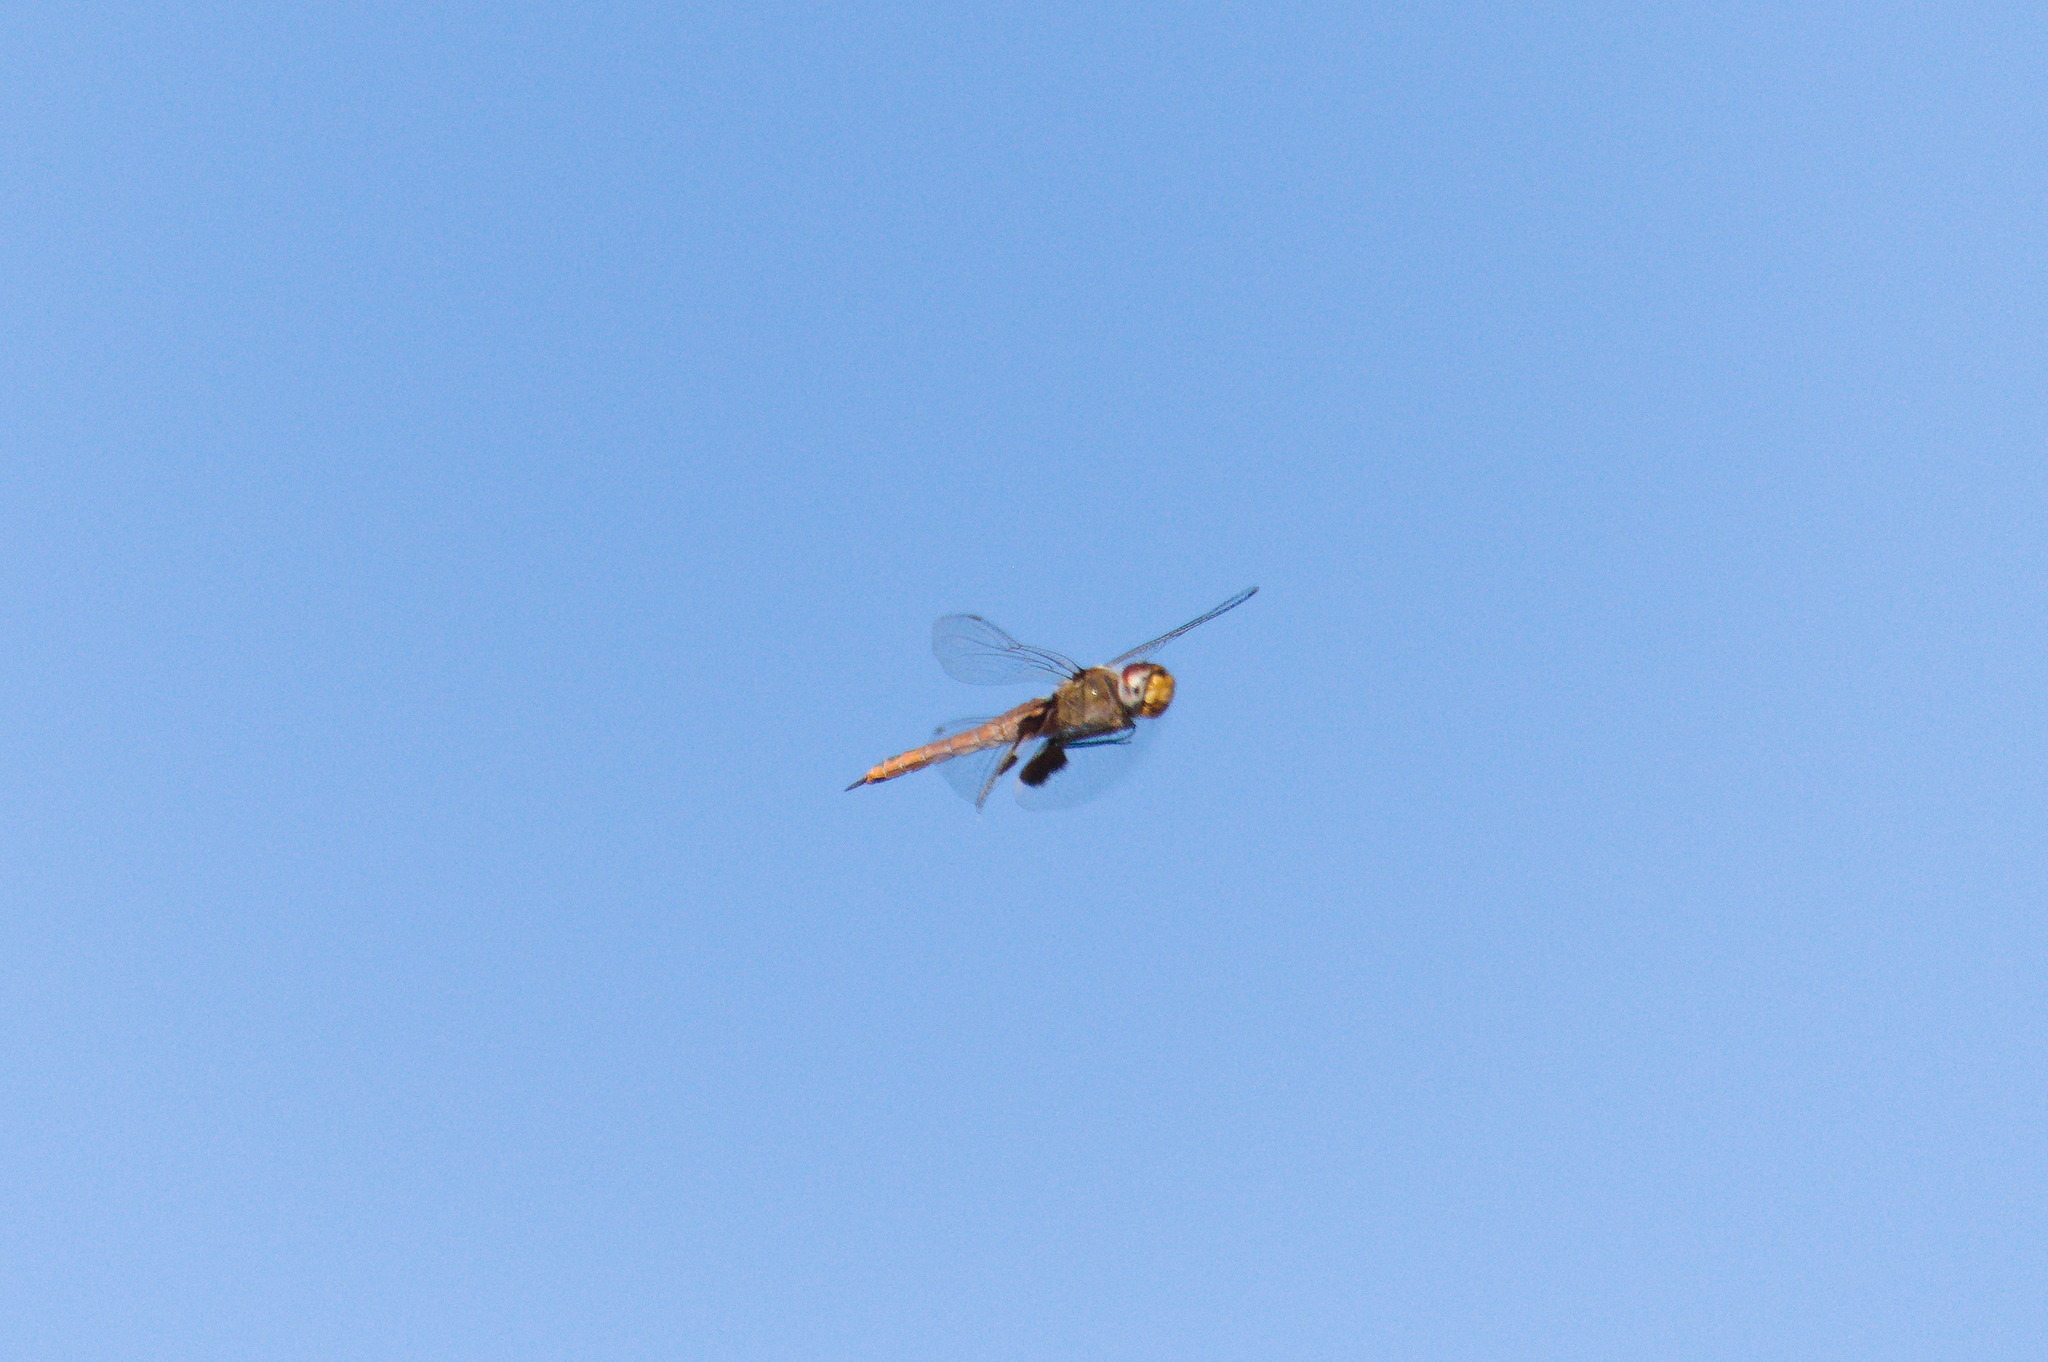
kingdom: Animalia
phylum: Arthropoda
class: Insecta
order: Odonata
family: Libellulidae
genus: Tramea
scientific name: Tramea onusta
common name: Red saddlebags
